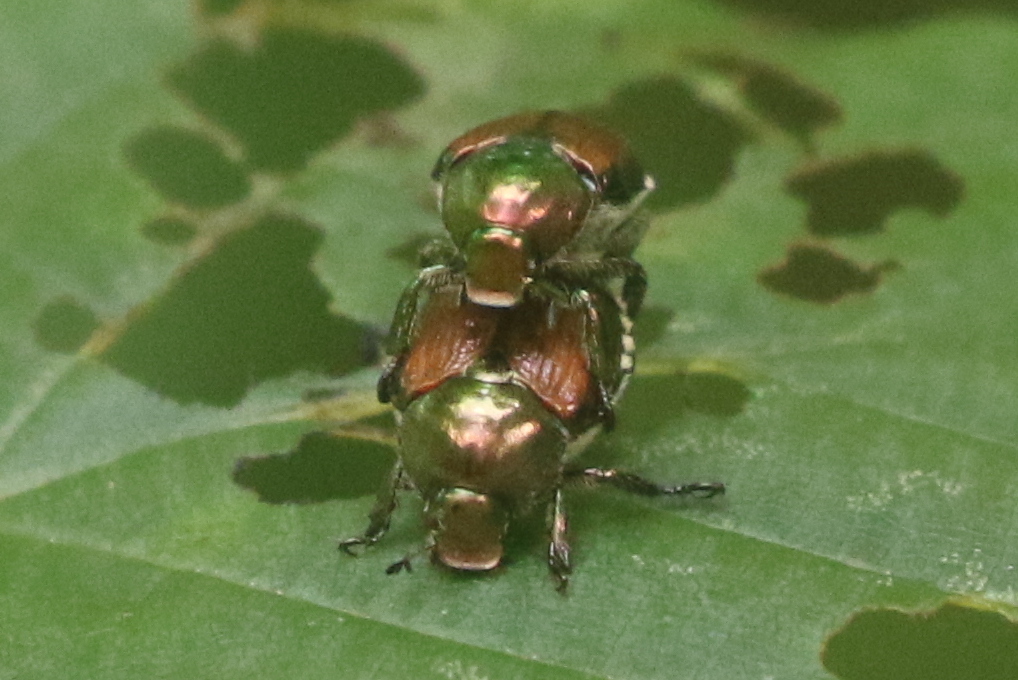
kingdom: Animalia
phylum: Arthropoda
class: Insecta
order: Coleoptera
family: Scarabaeidae
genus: Popillia
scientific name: Popillia japonica
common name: Japanese beetle
